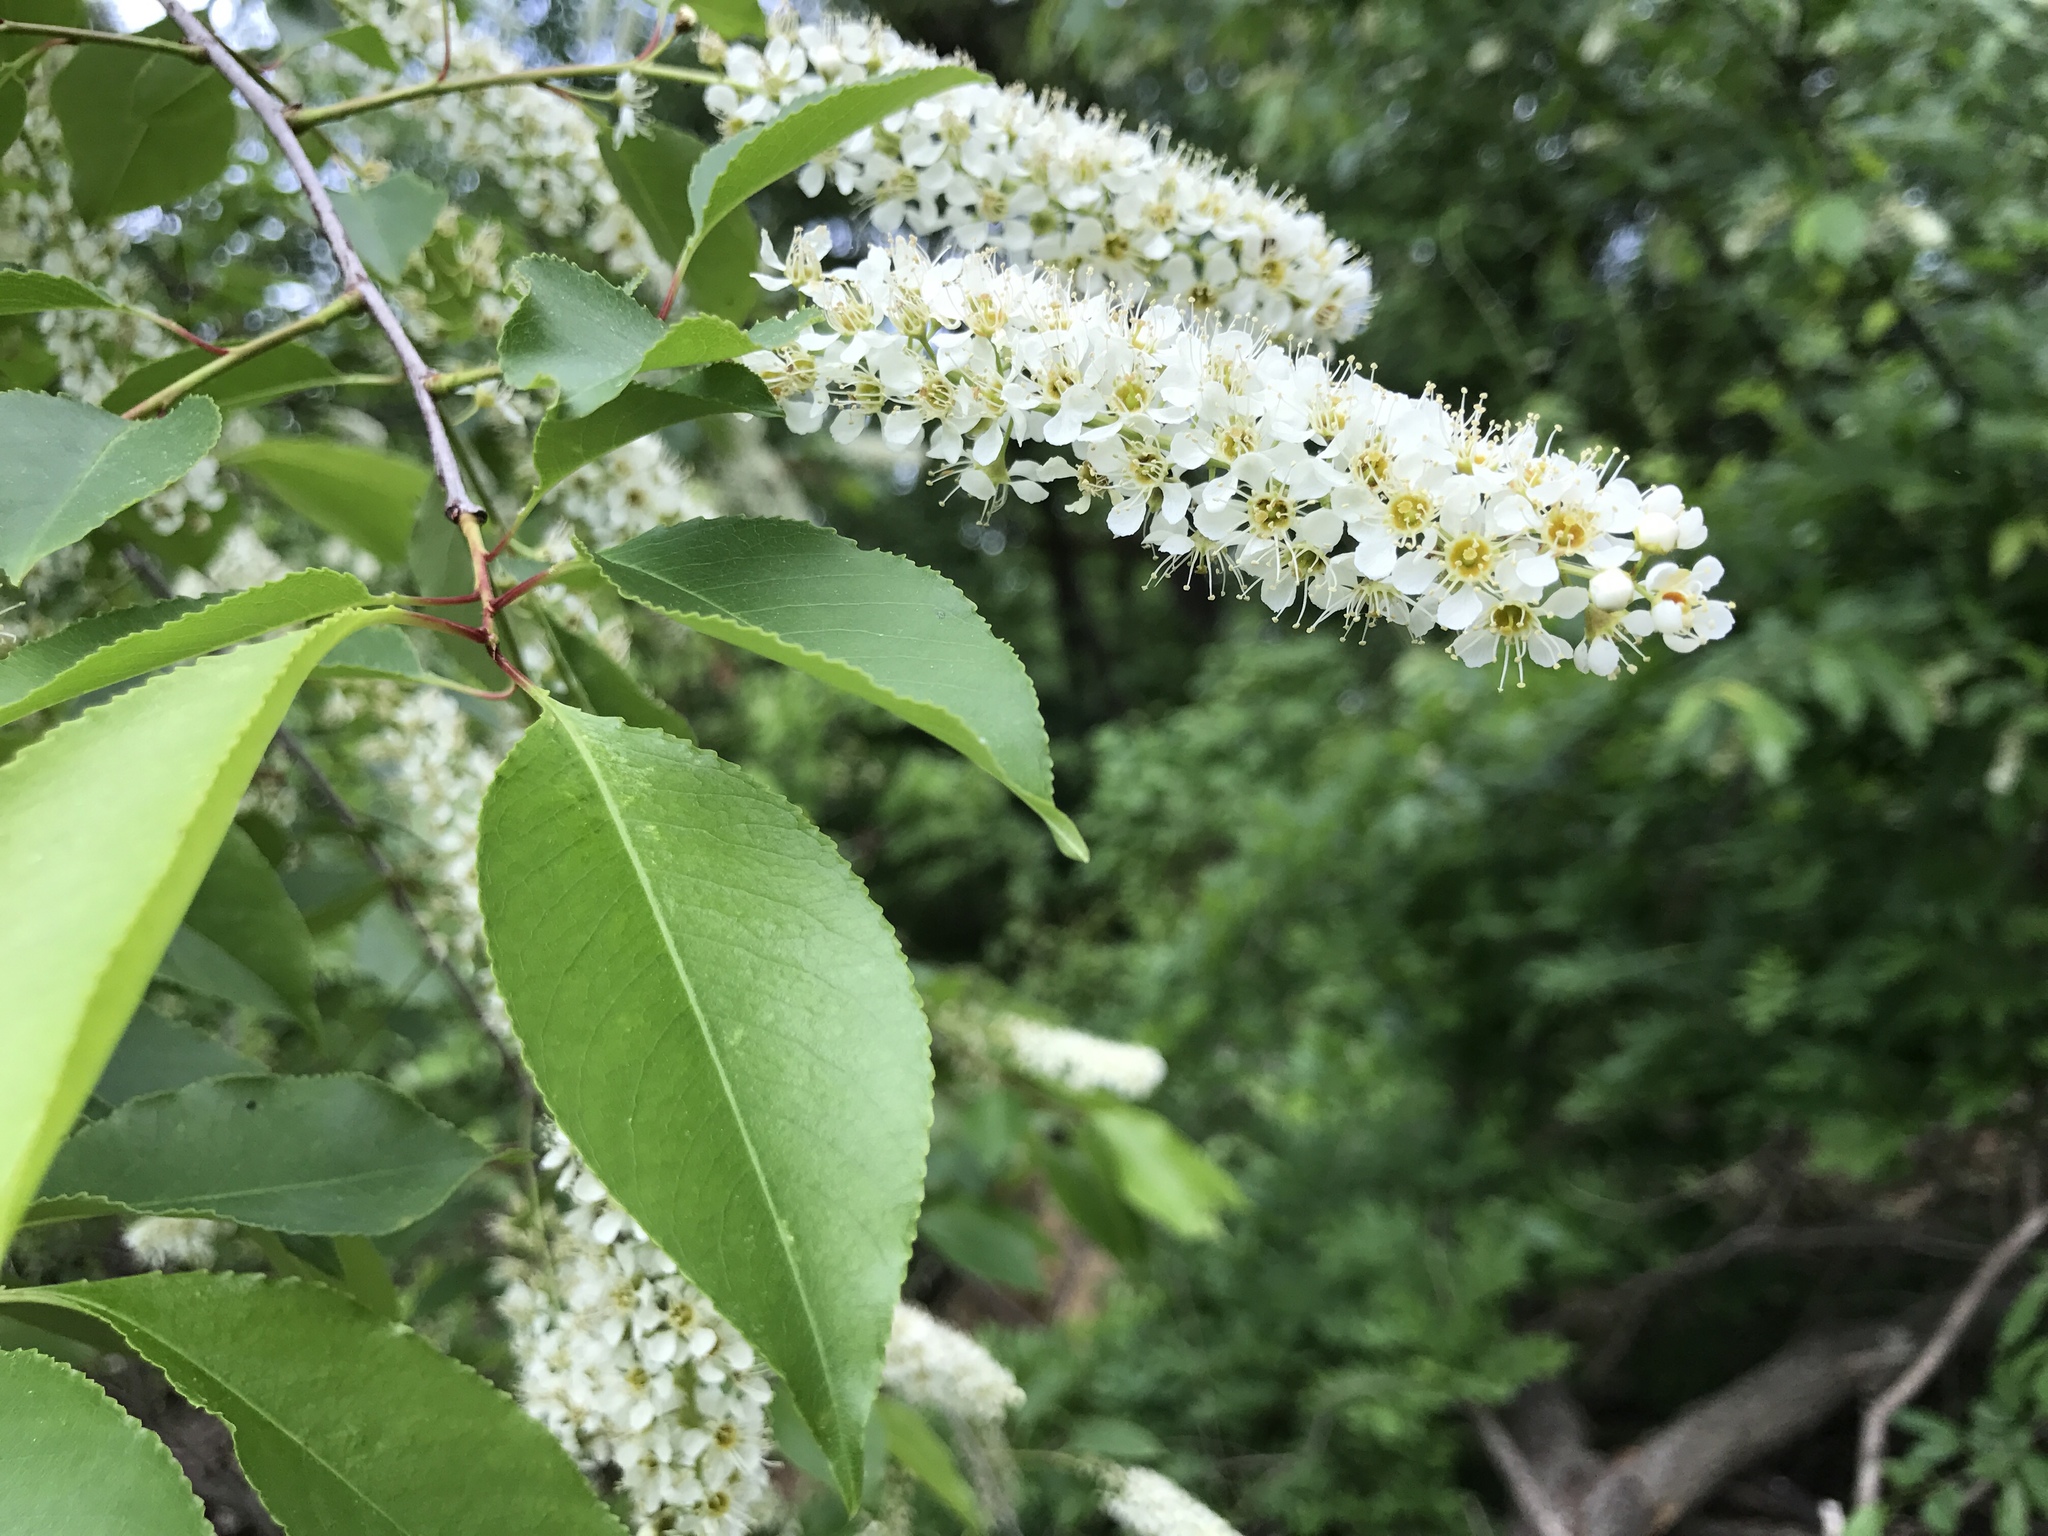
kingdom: Plantae
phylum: Tracheophyta
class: Magnoliopsida
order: Rosales
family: Rosaceae
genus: Prunus
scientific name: Prunus serotina
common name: Black cherry
